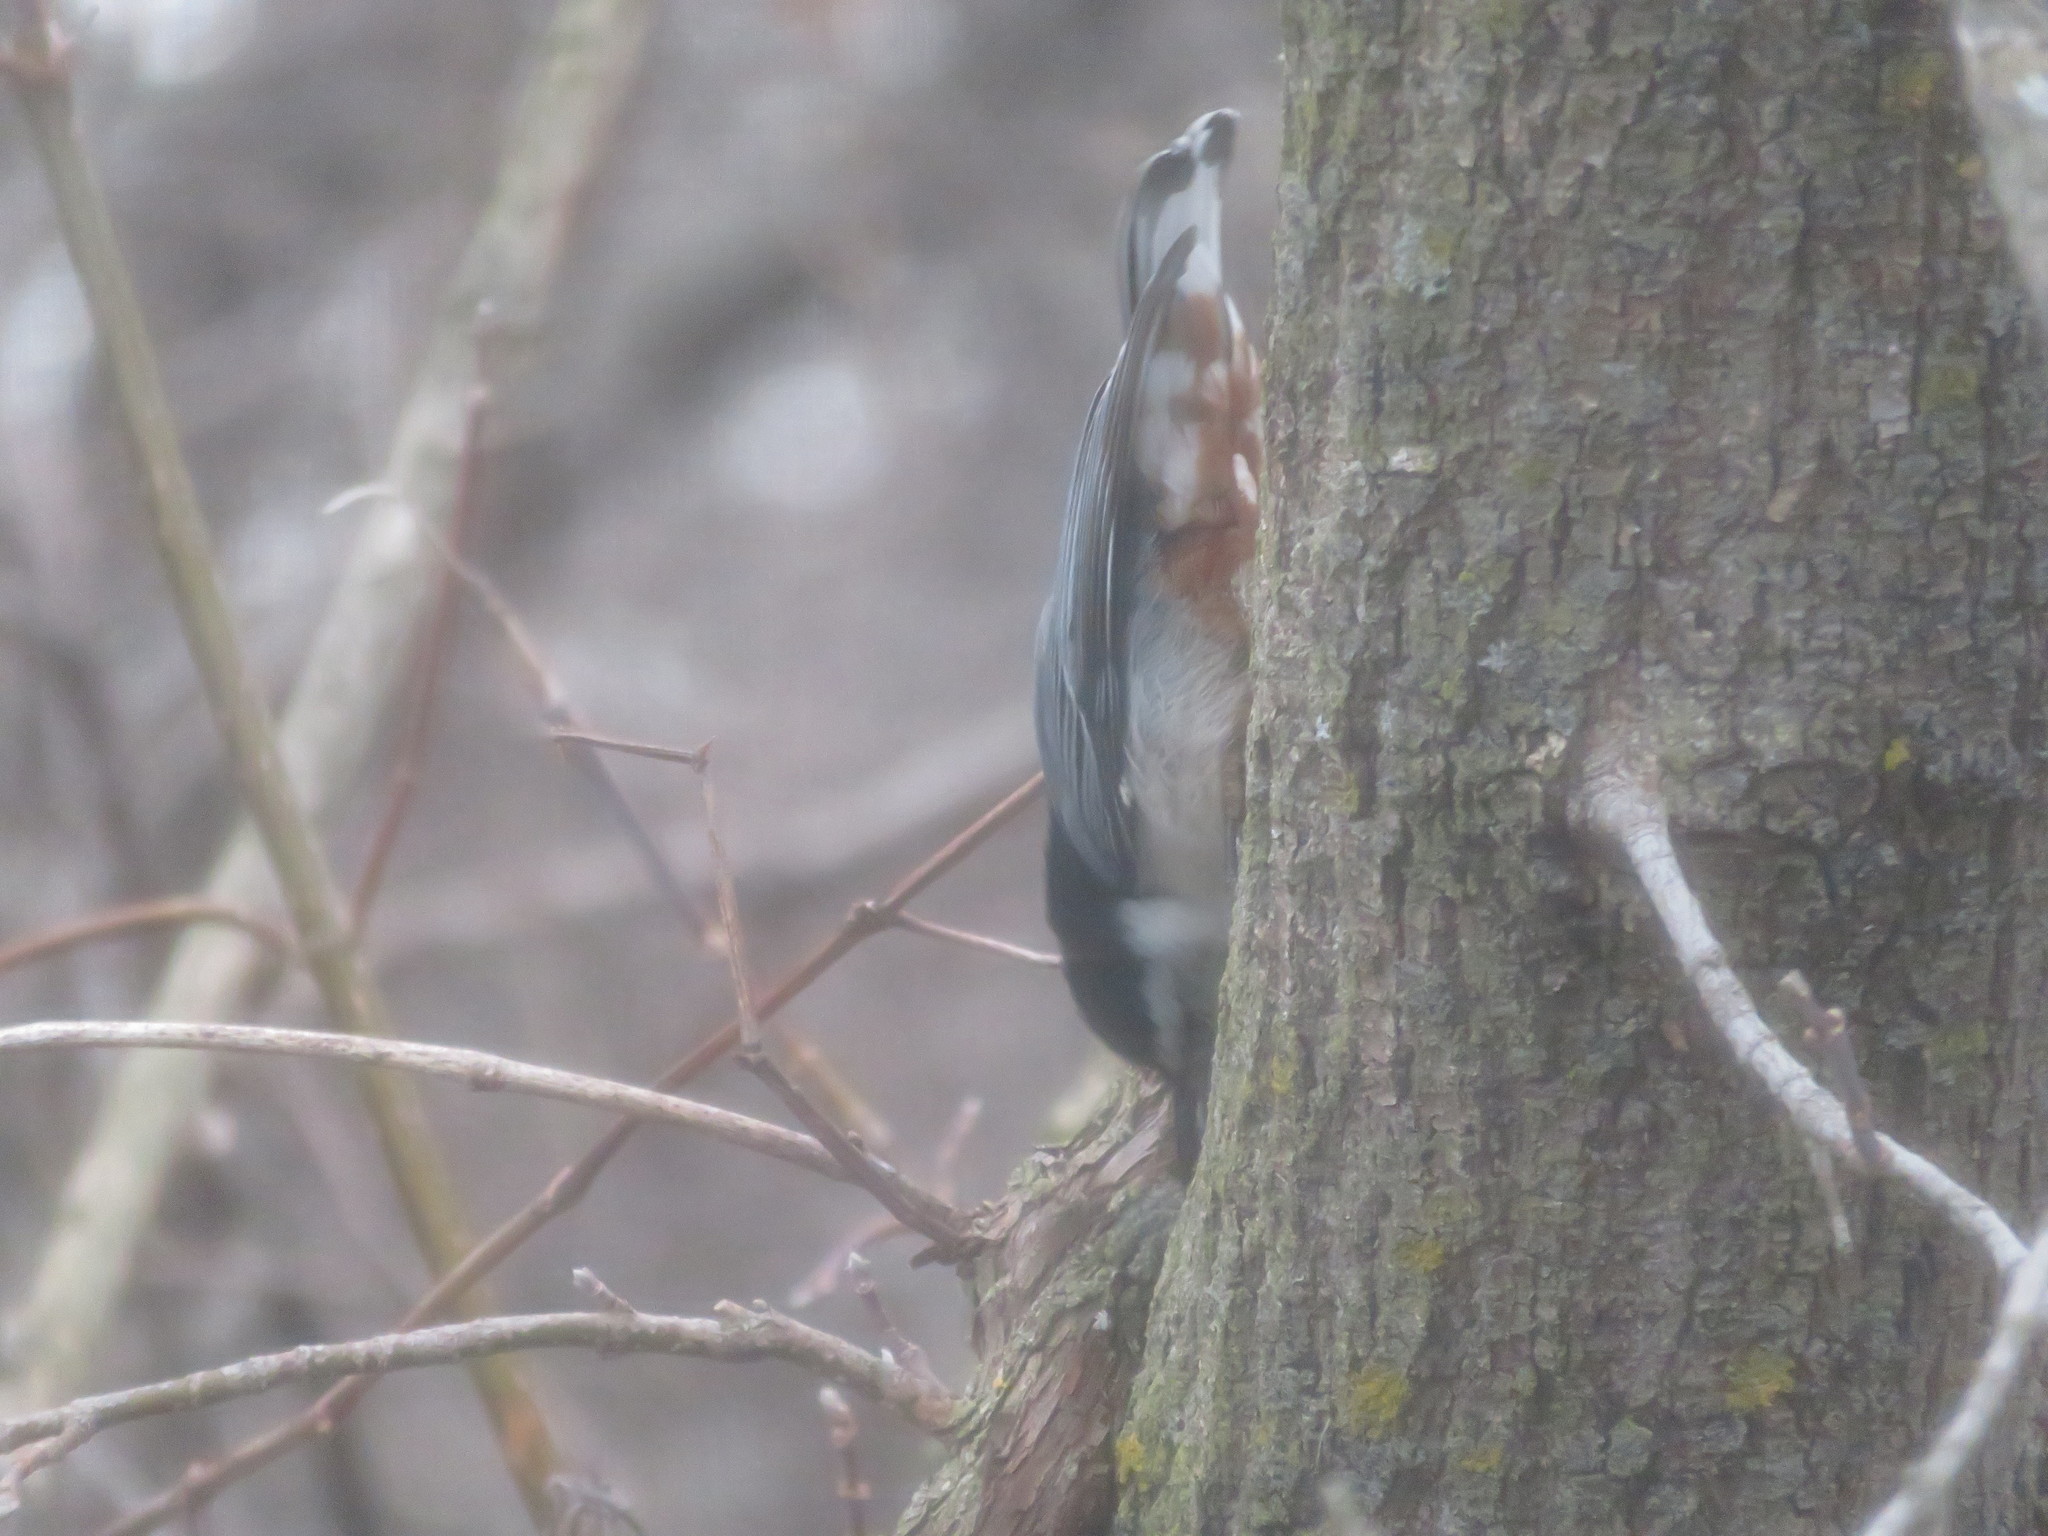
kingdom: Animalia
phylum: Chordata
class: Aves
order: Passeriformes
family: Sittidae
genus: Sitta
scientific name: Sitta carolinensis
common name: White-breasted nuthatch
